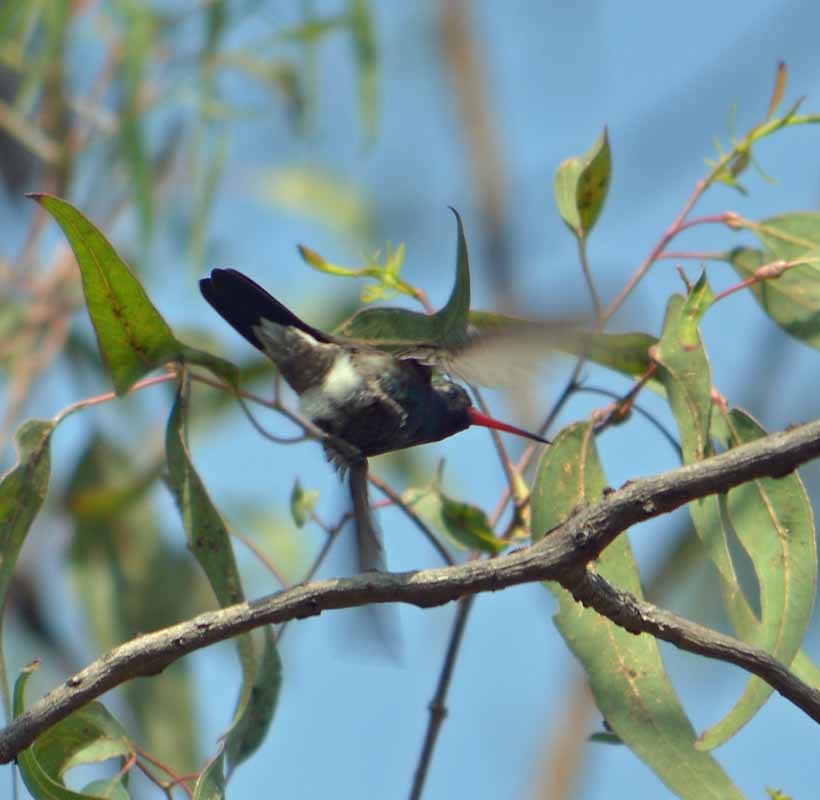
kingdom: Animalia
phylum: Chordata
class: Aves
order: Apodiformes
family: Trochilidae
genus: Cynanthus
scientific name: Cynanthus latirostris
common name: Broad-billed hummingbird
